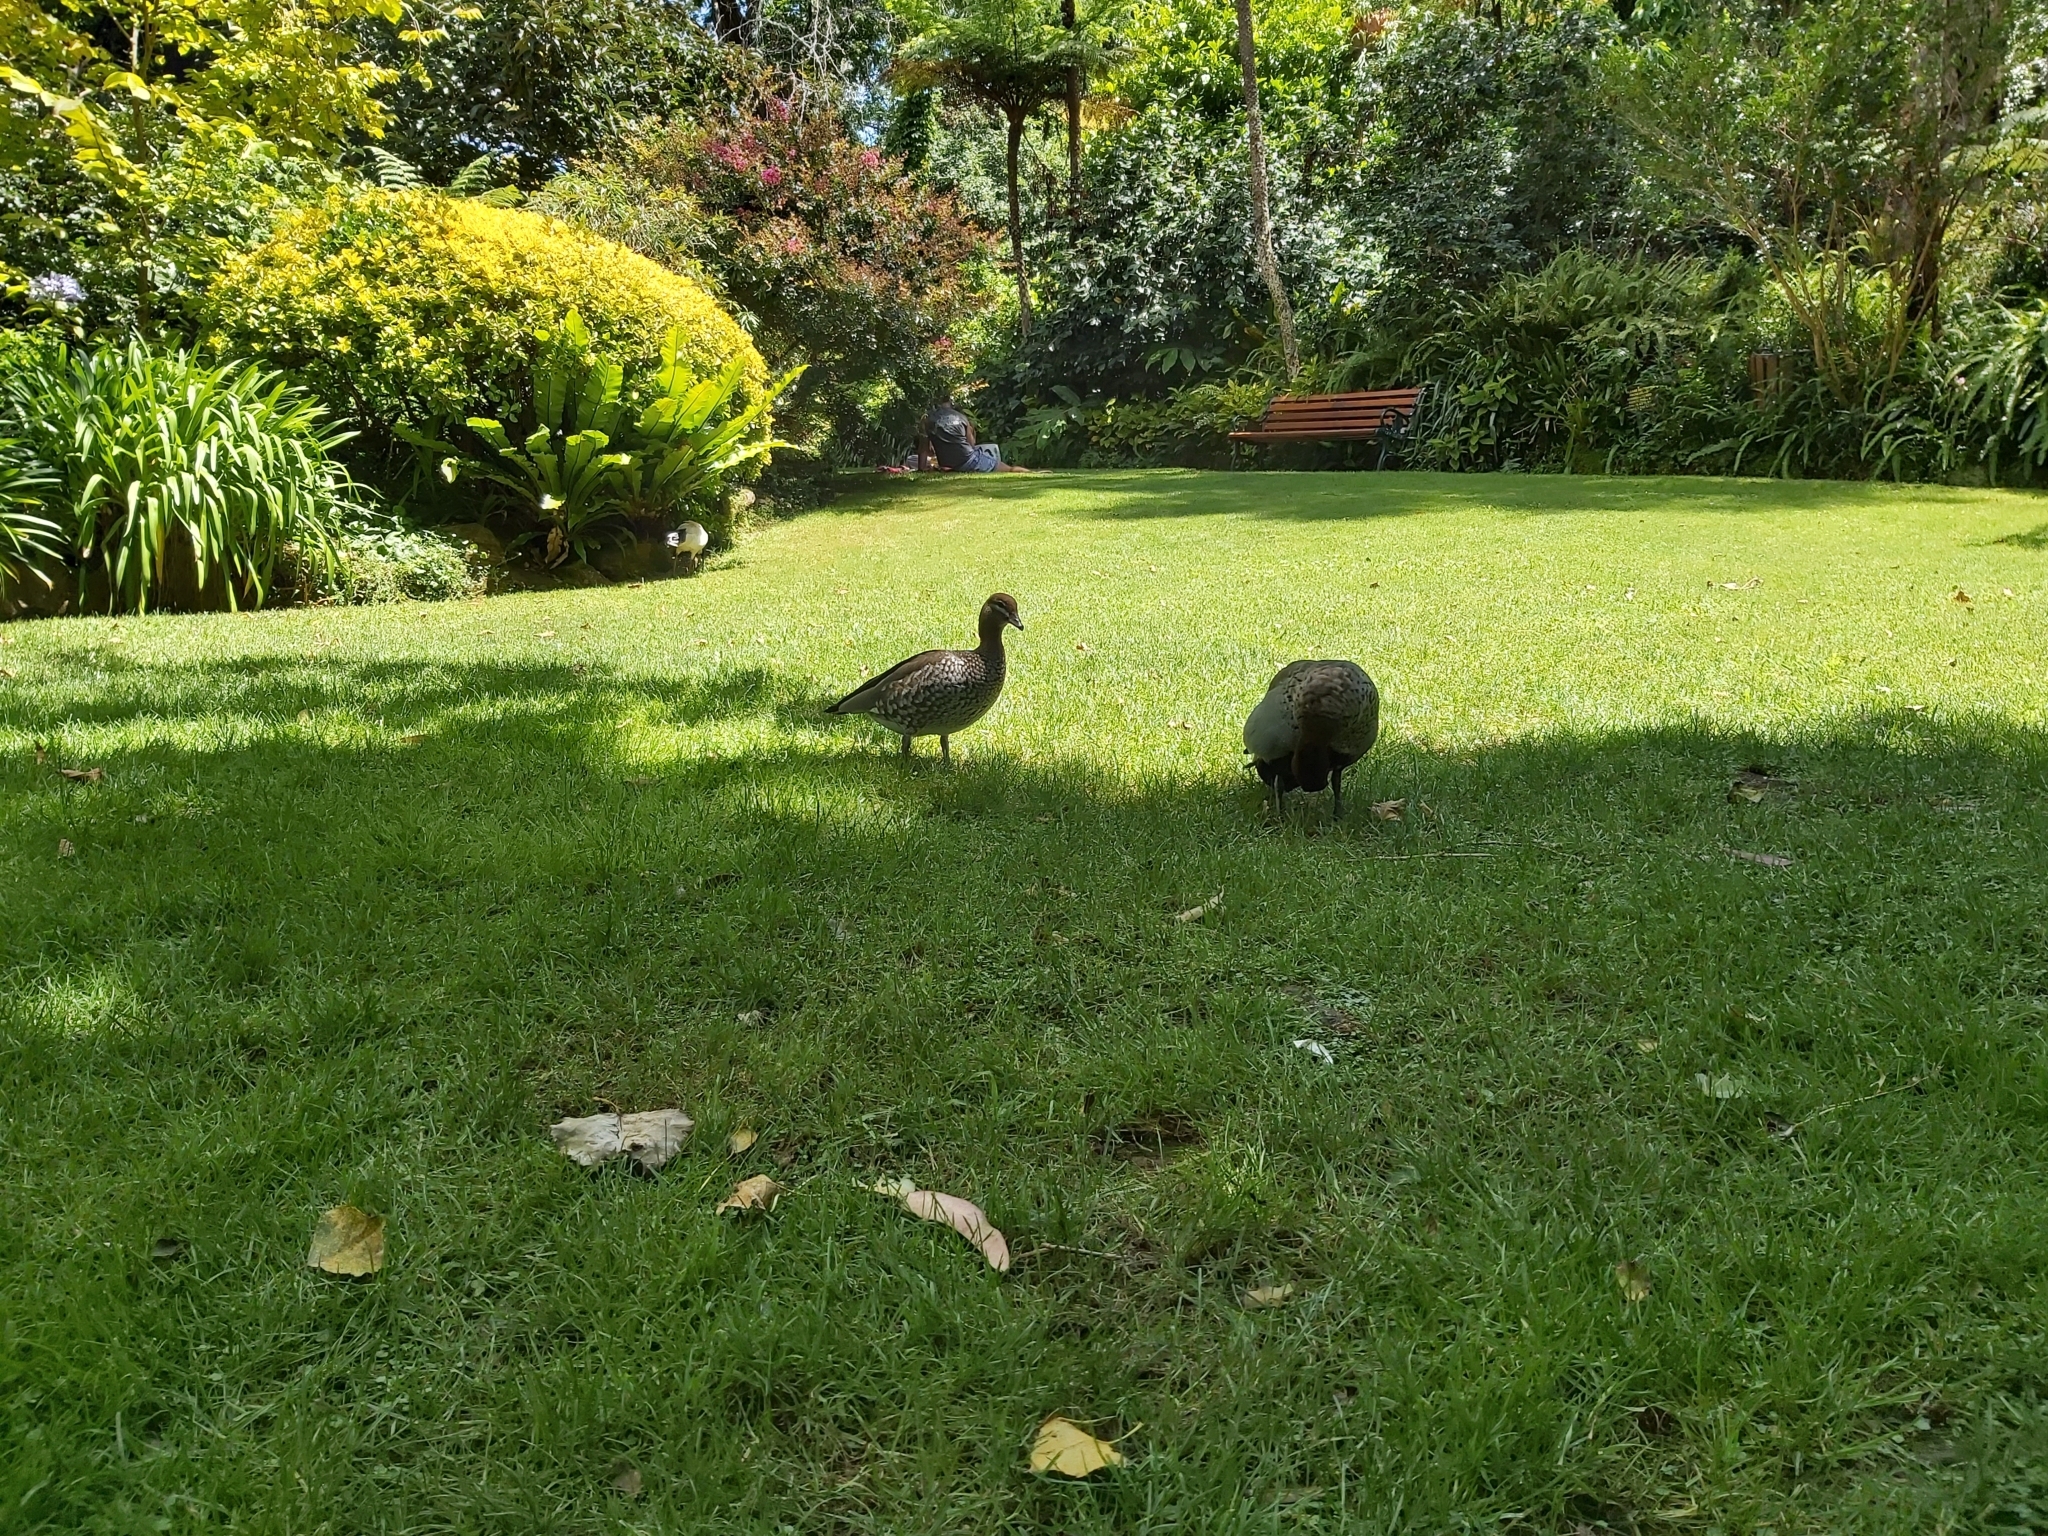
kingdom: Animalia
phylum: Chordata
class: Aves
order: Anseriformes
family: Anatidae
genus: Chenonetta
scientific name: Chenonetta jubata
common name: Maned duck
